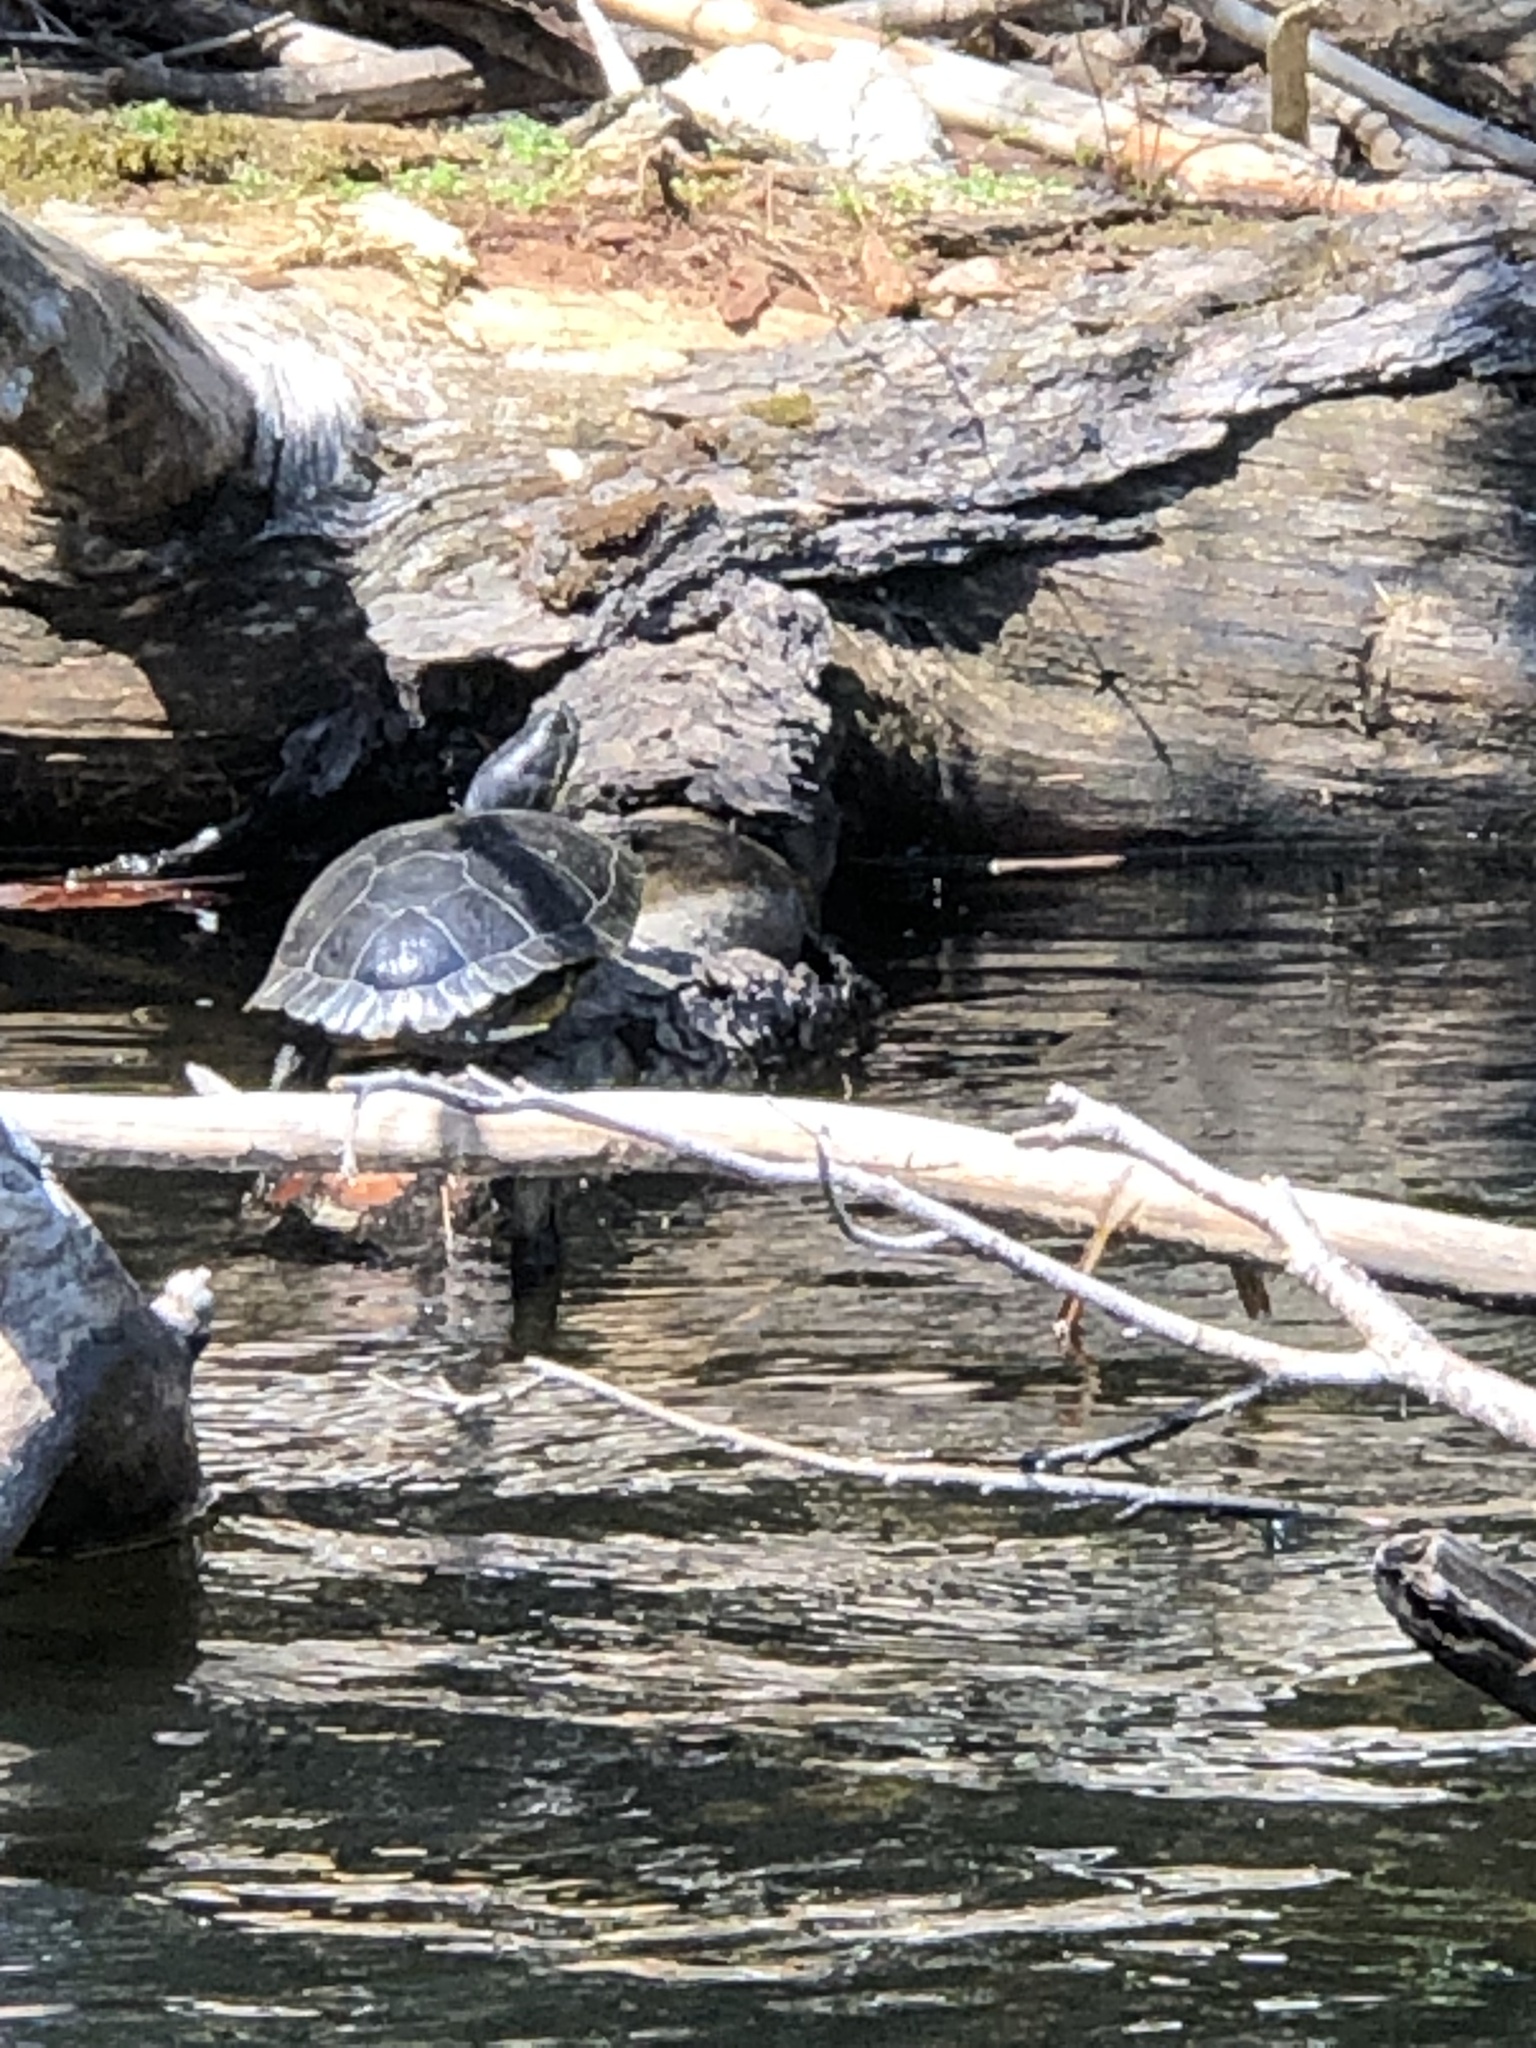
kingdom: Animalia
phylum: Chordata
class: Testudines
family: Emydidae
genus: Trachemys
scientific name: Trachemys scripta
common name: Slider
